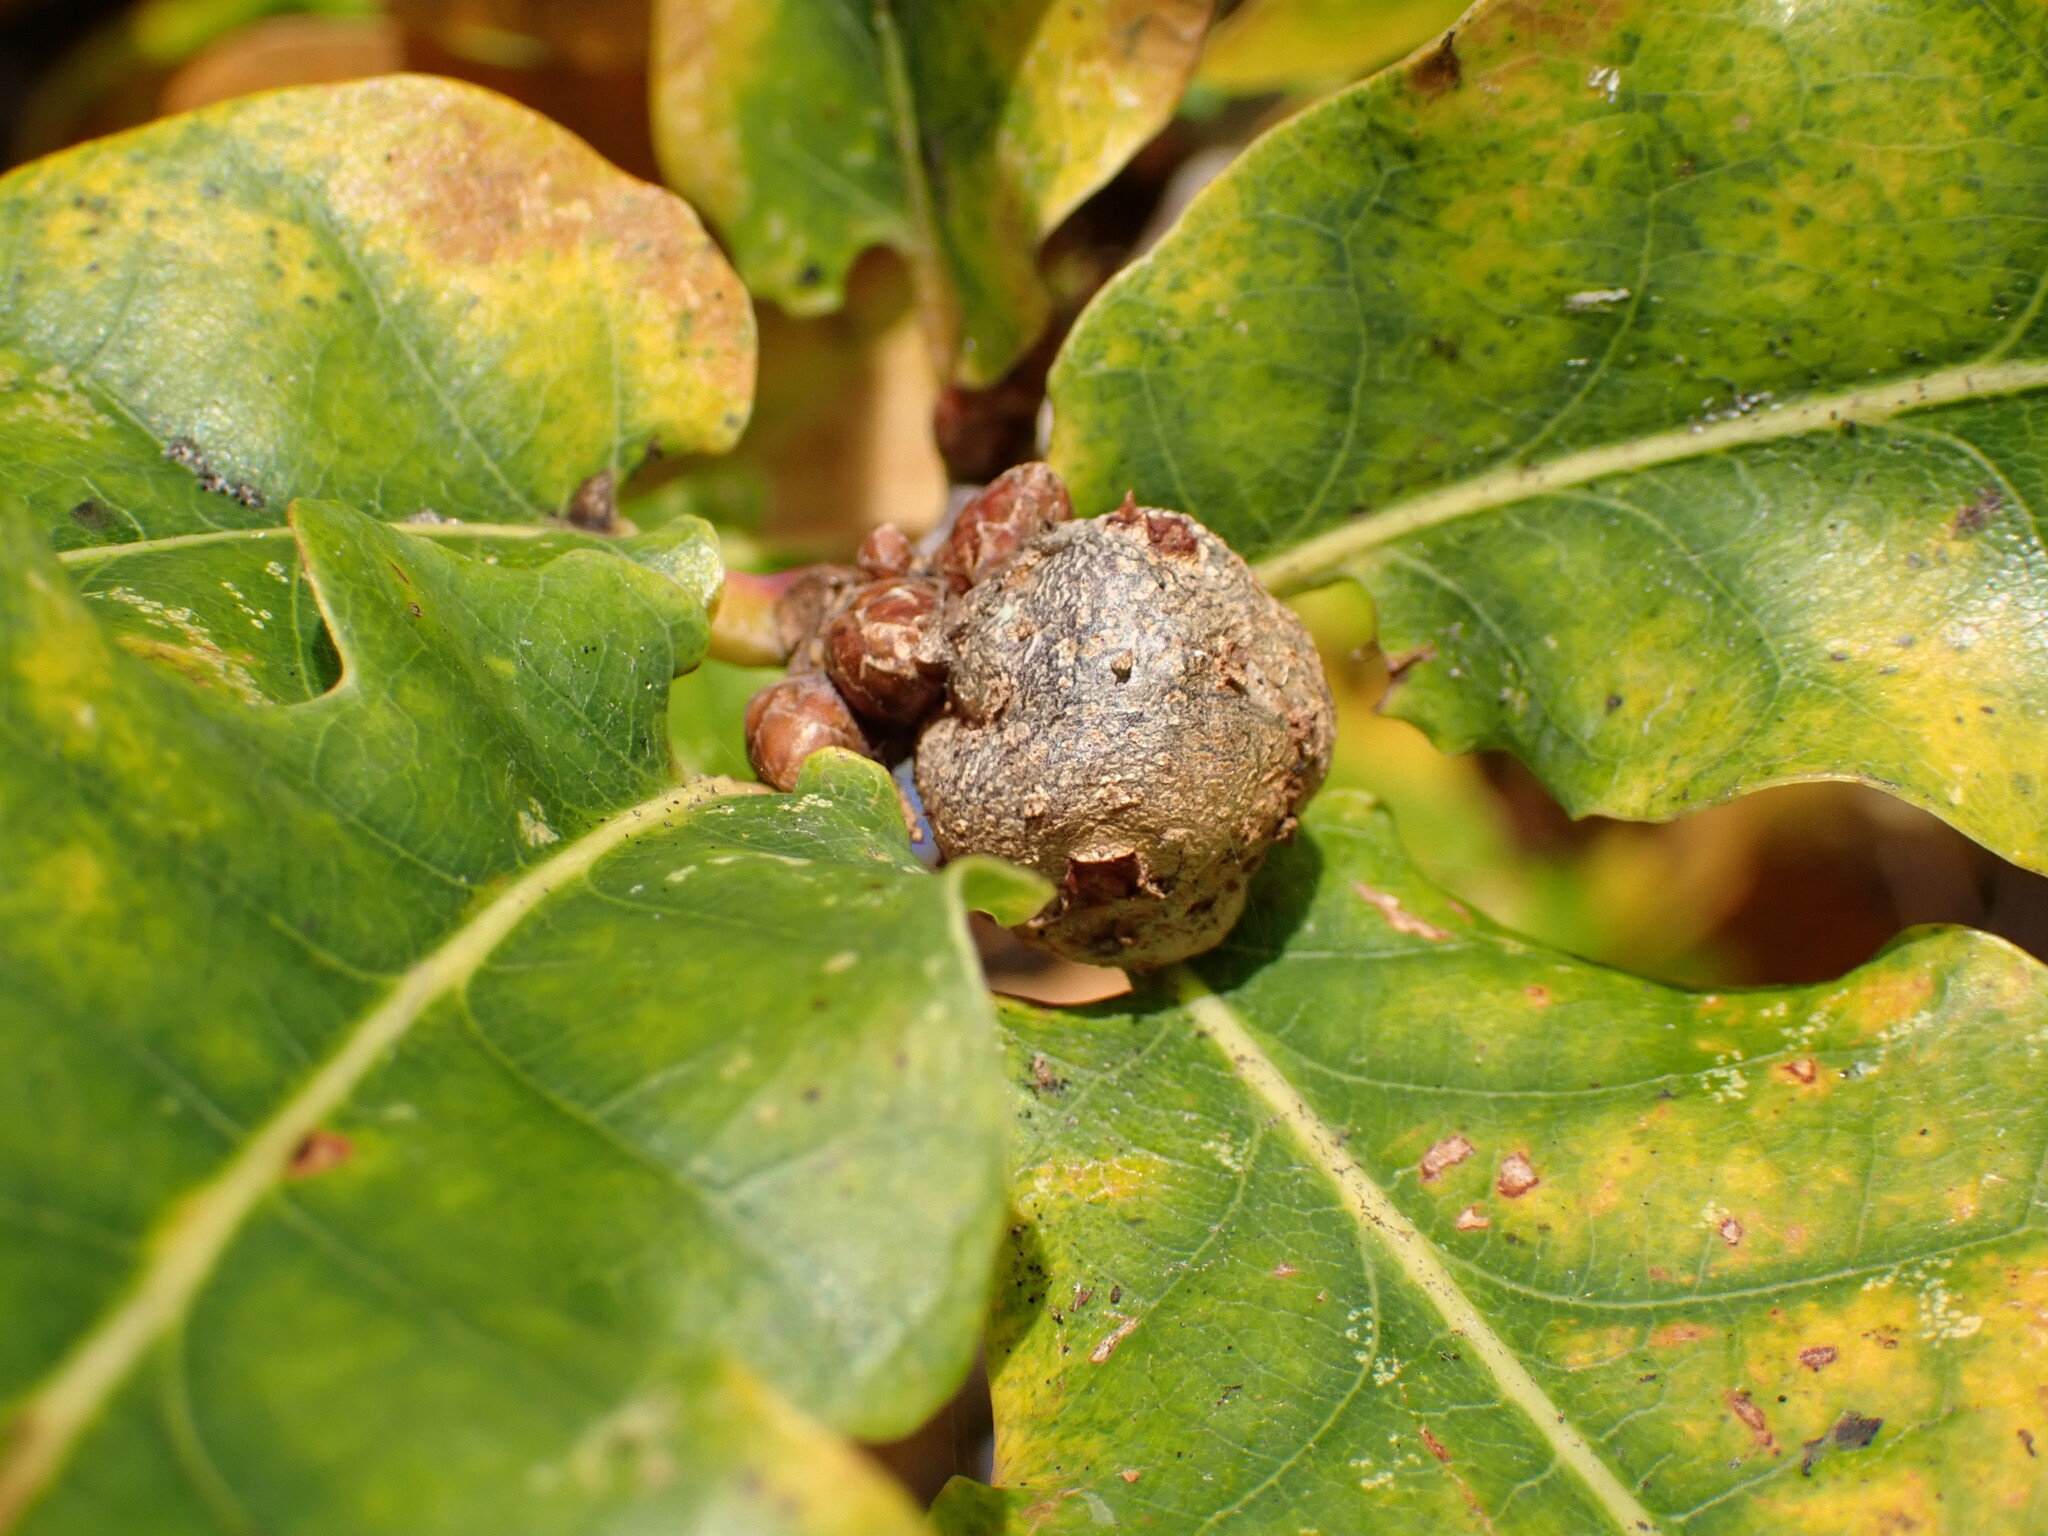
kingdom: Animalia
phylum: Arthropoda
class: Insecta
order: Hymenoptera
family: Cynipidae
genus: Andricus
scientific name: Andricus lignicolus
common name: Cola-nut gall
